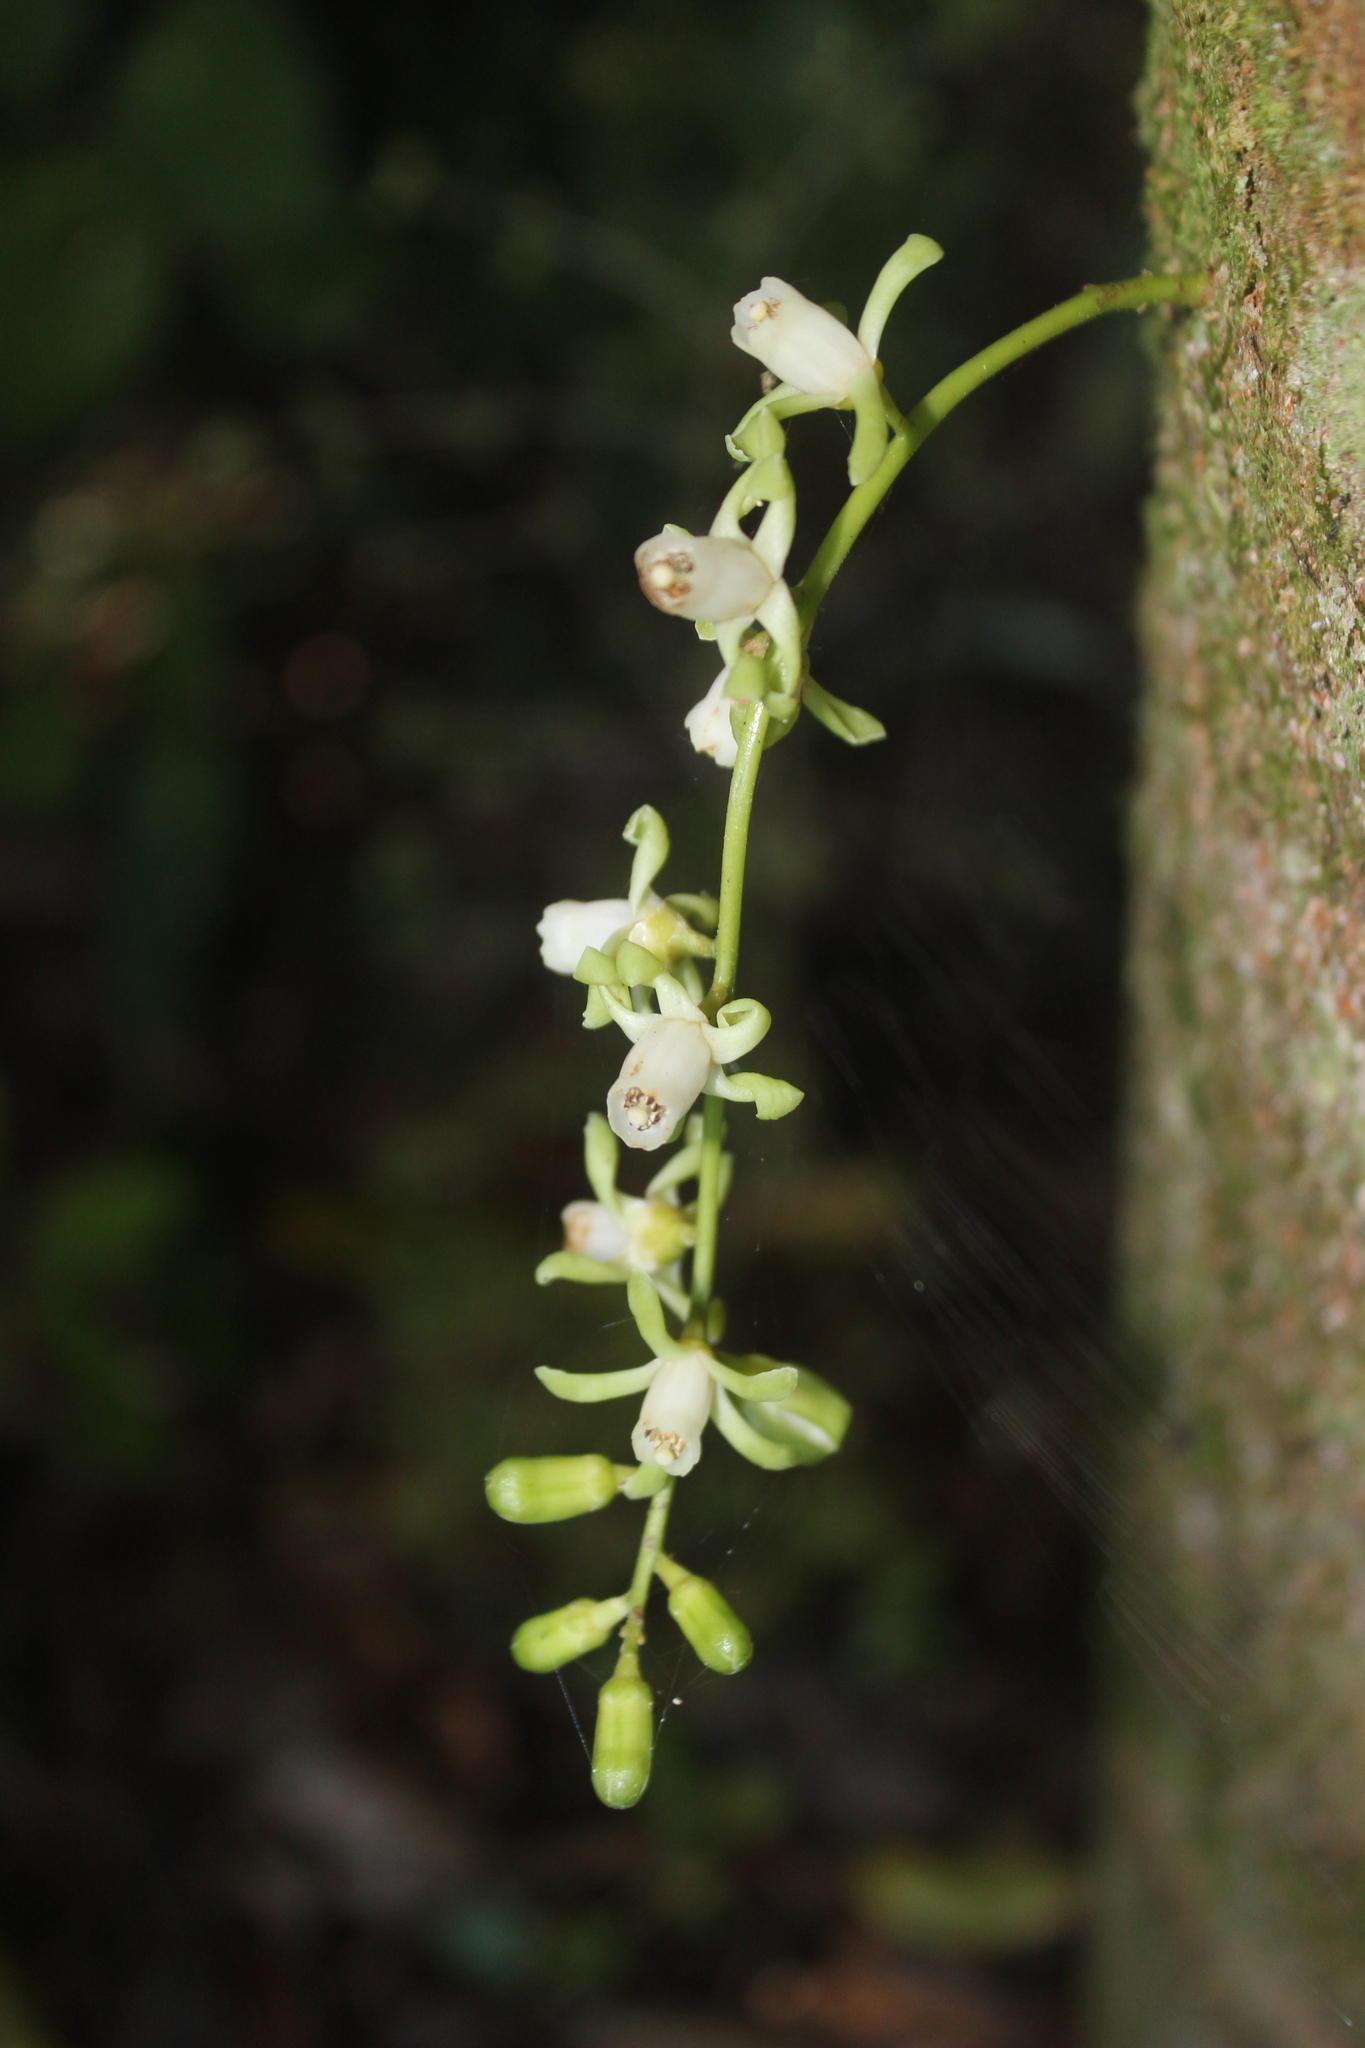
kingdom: Plantae
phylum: Tracheophyta
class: Magnoliopsida
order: Sapindales
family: Meliaceae
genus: Didymocheton
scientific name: Didymocheton spectabilis
